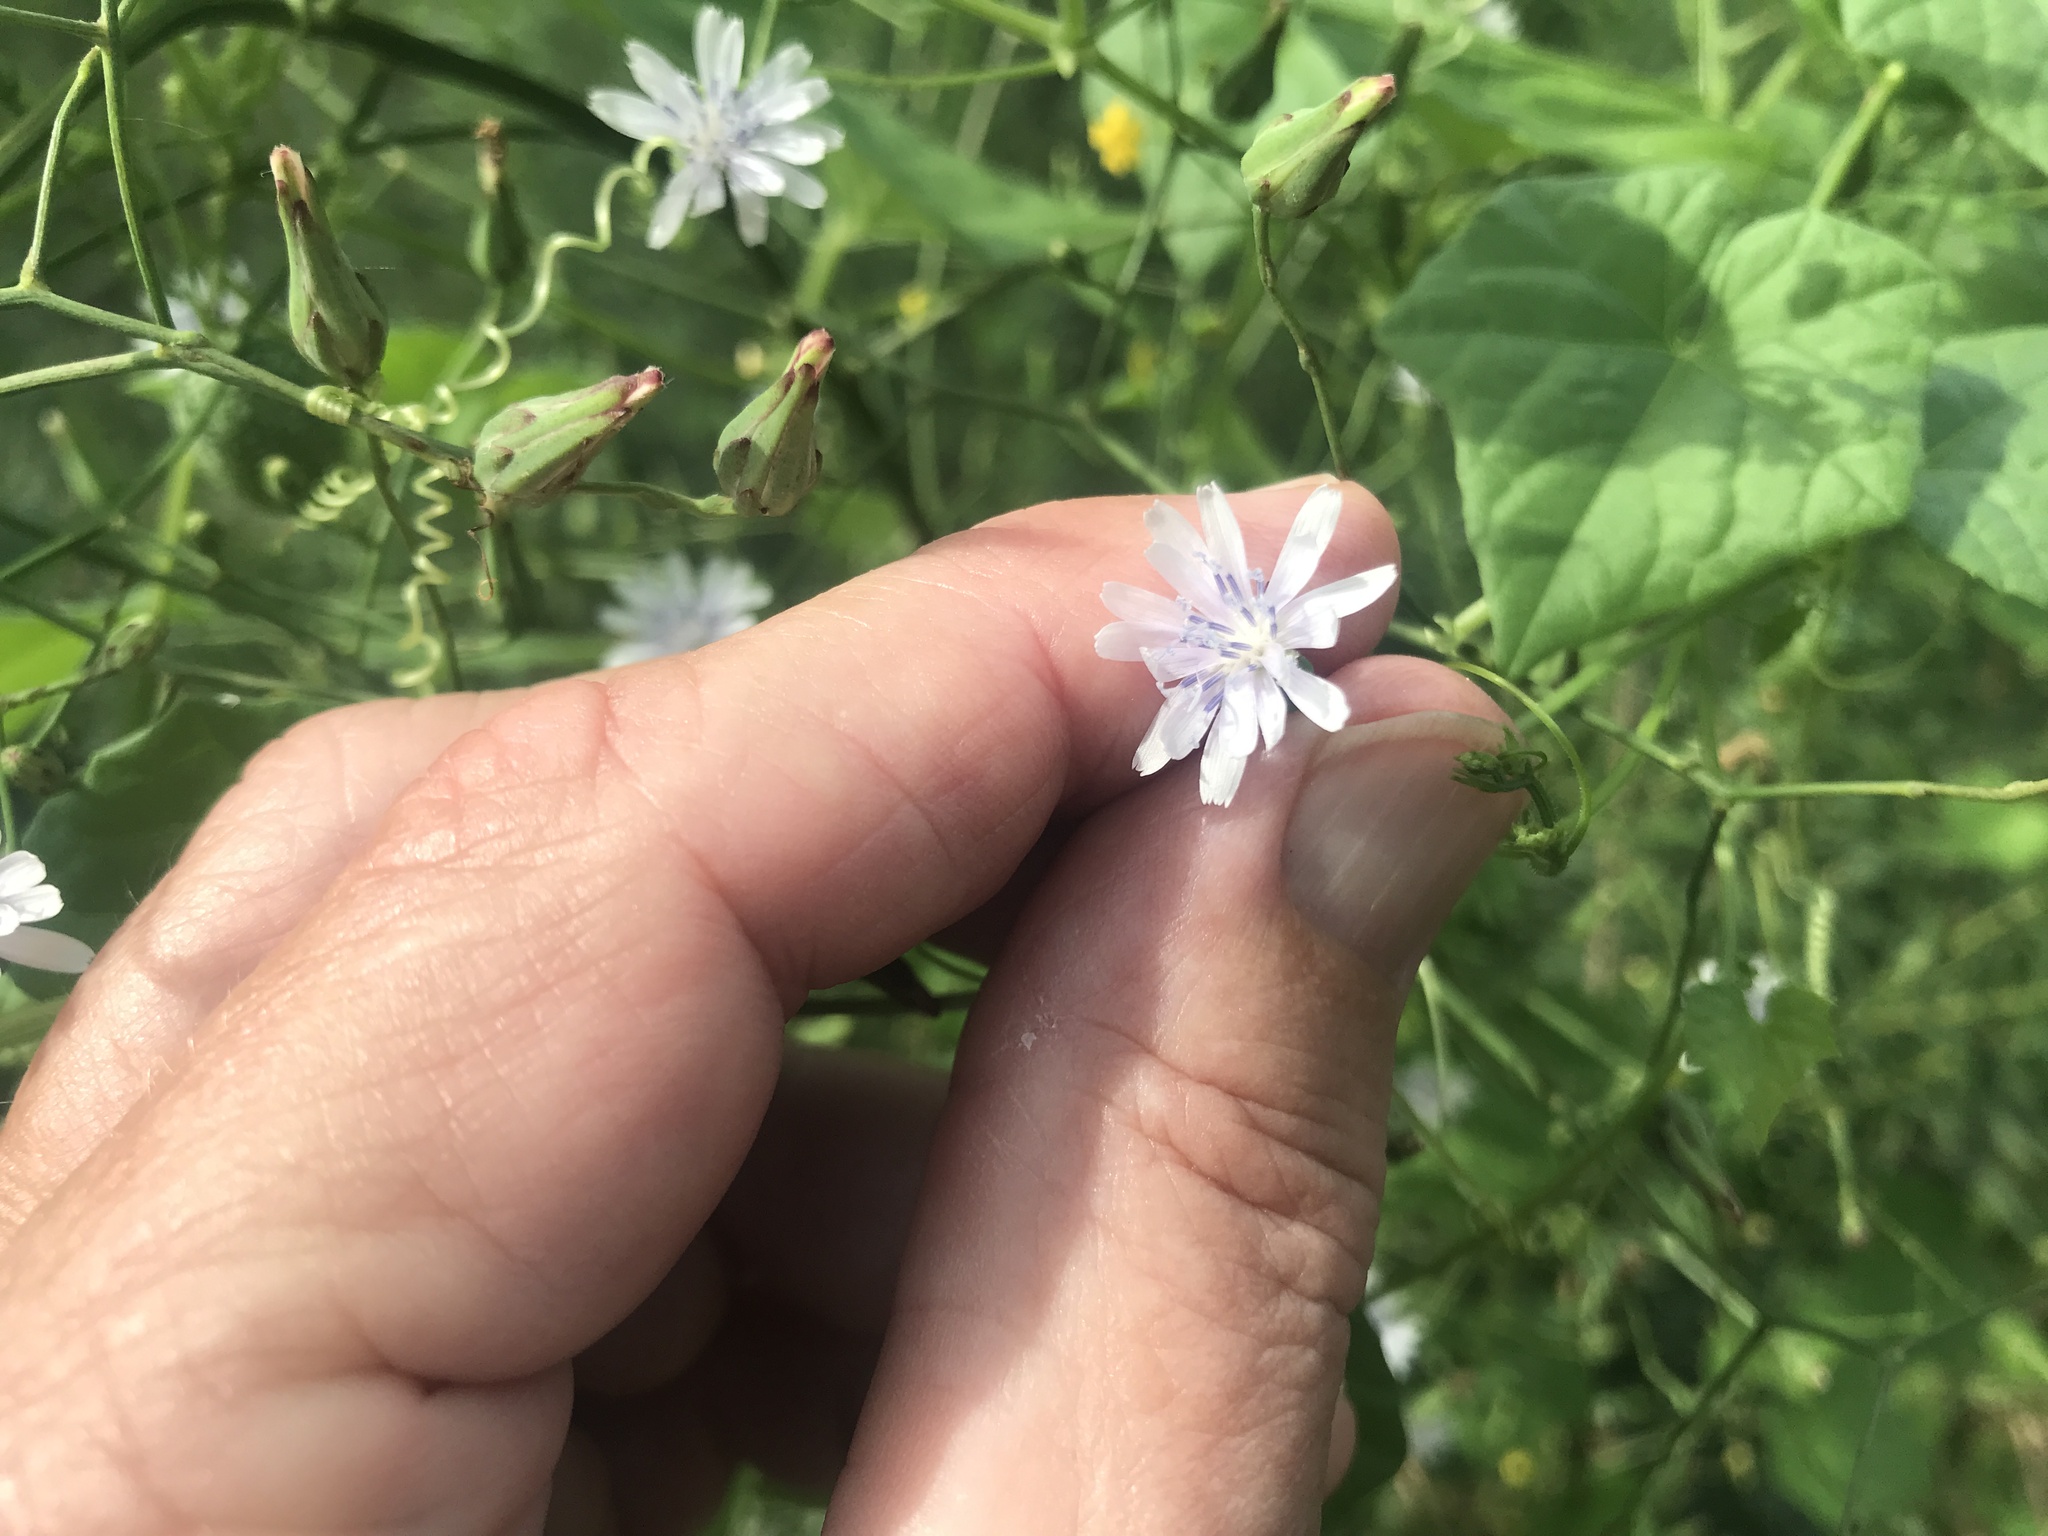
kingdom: Plantae
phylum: Tracheophyta
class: Magnoliopsida
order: Asterales
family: Asteraceae
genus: Lactuca
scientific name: Lactuca floridana
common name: Woodland lettuce
